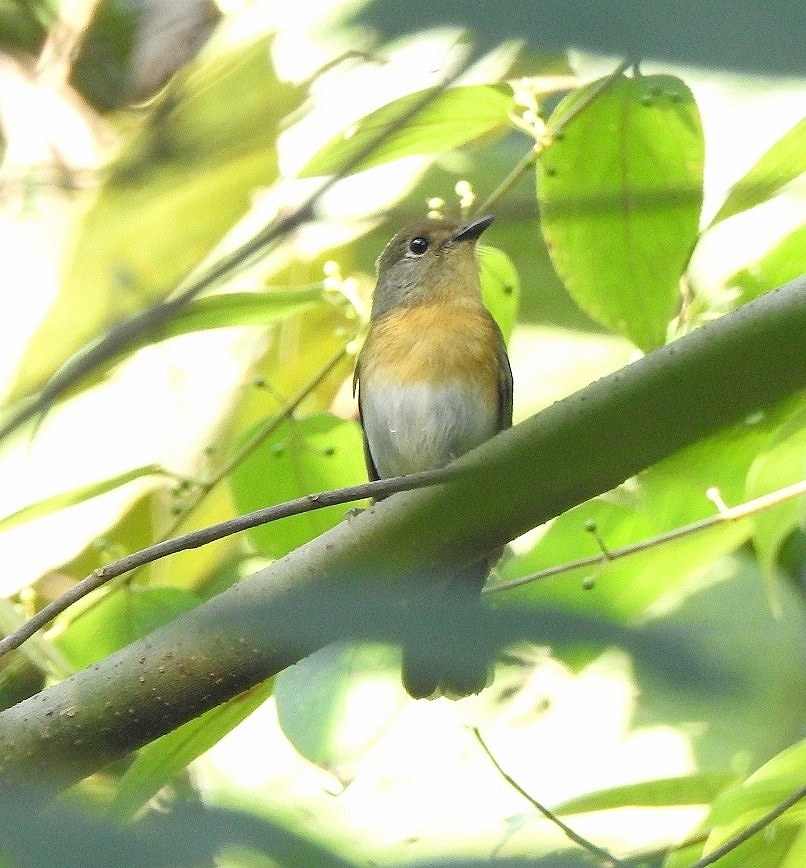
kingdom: Animalia
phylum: Chordata
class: Aves
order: Passeriformes
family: Muscicapidae
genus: Cyornis
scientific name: Cyornis rubeculoides
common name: Blue-throated blue flycatcher
